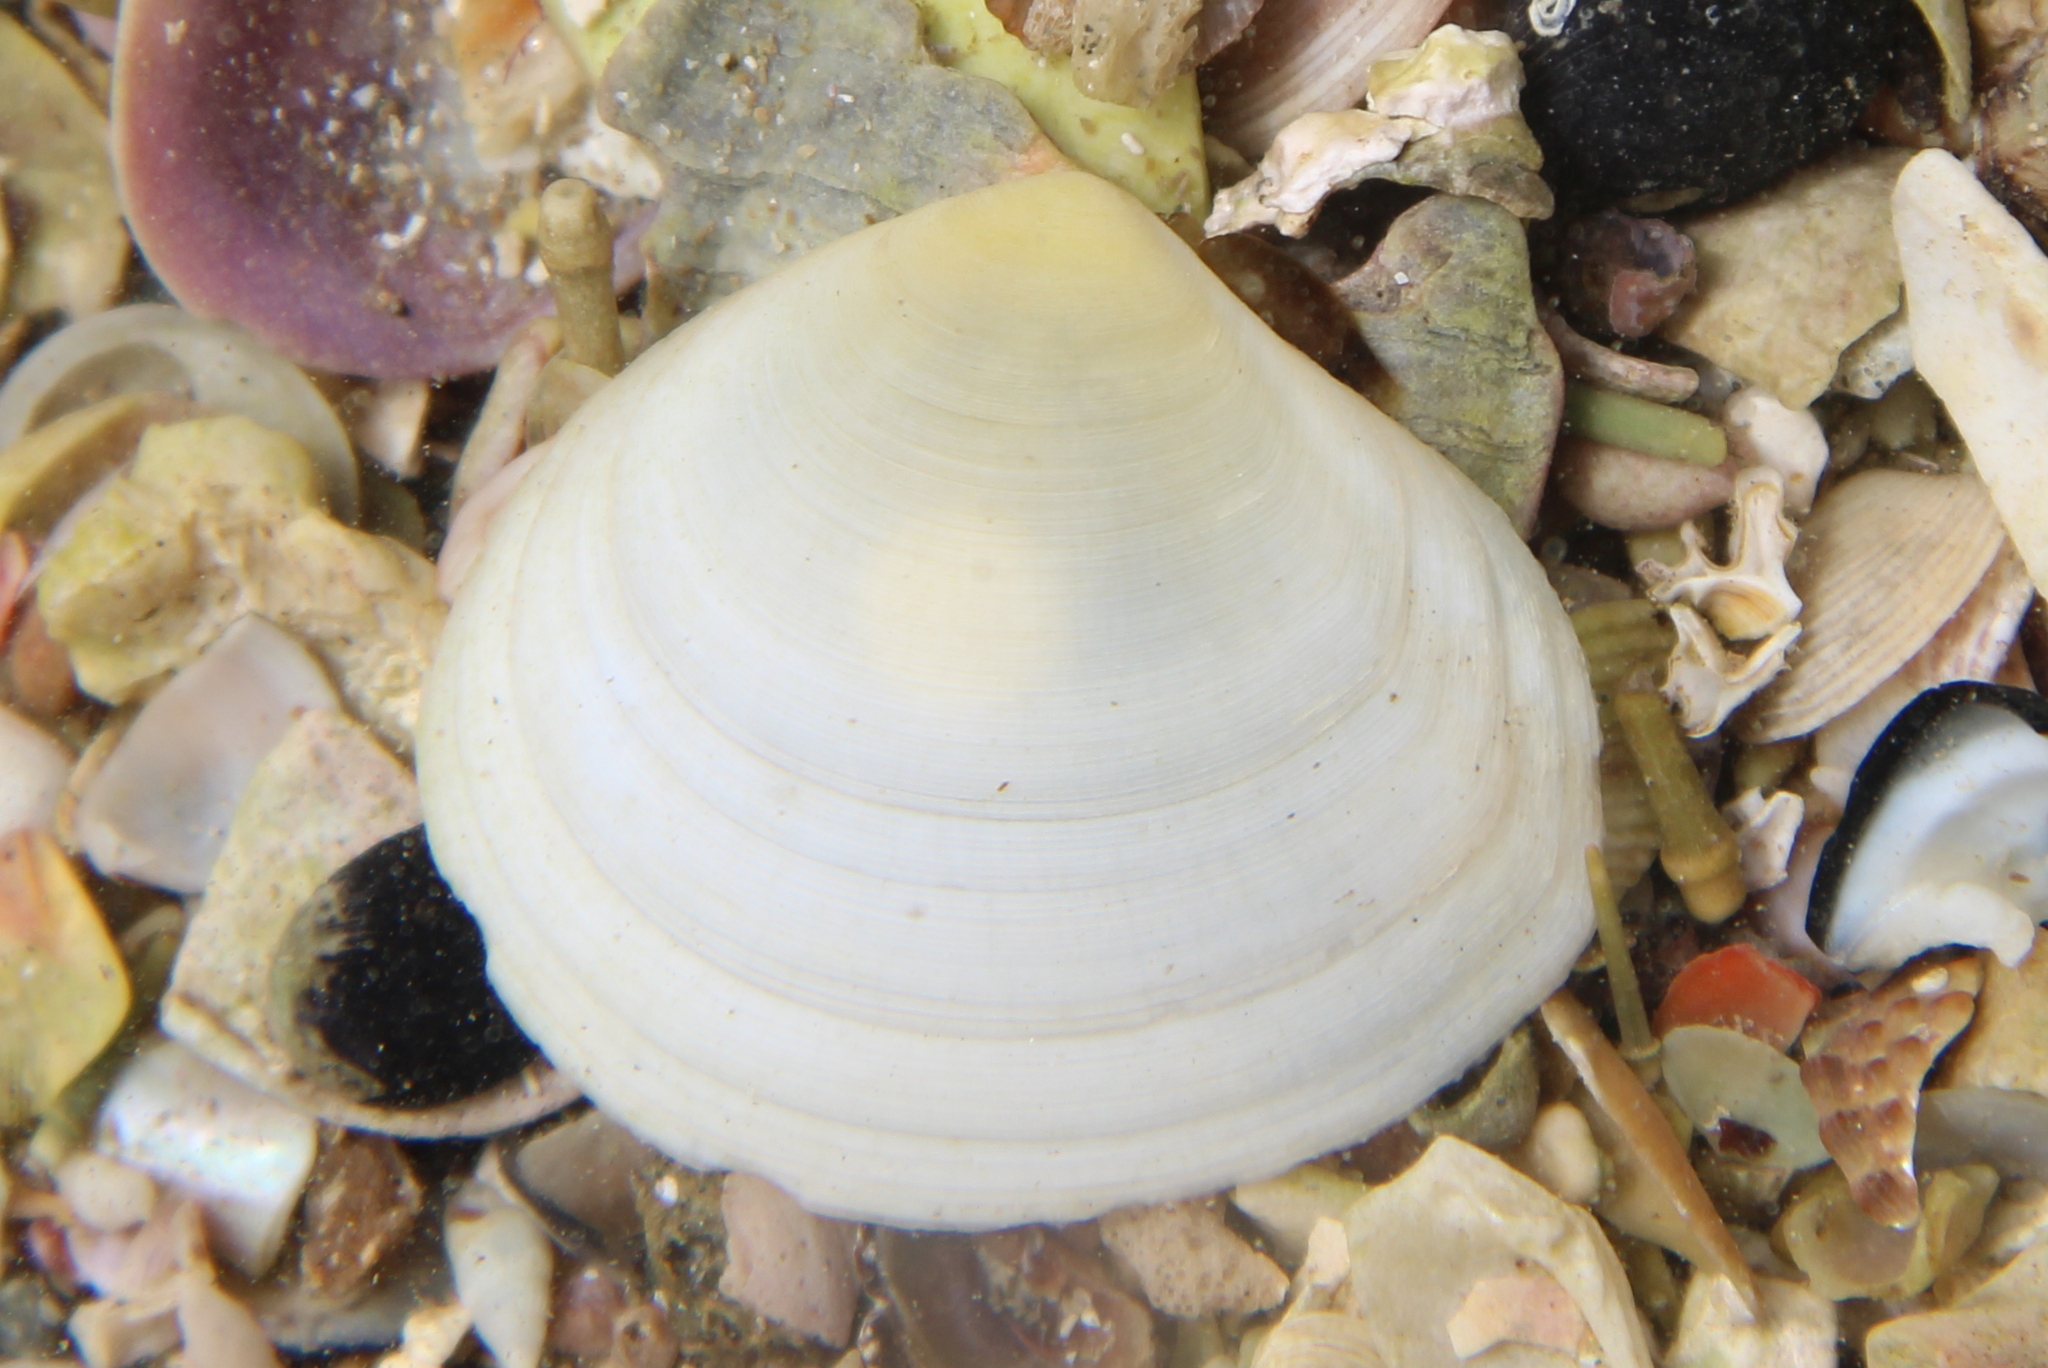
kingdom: Animalia
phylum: Mollusca
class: Bivalvia
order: Cardiida
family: Tellinidae
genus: Pseudarcopagia
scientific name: Pseudarcopagia disculus
